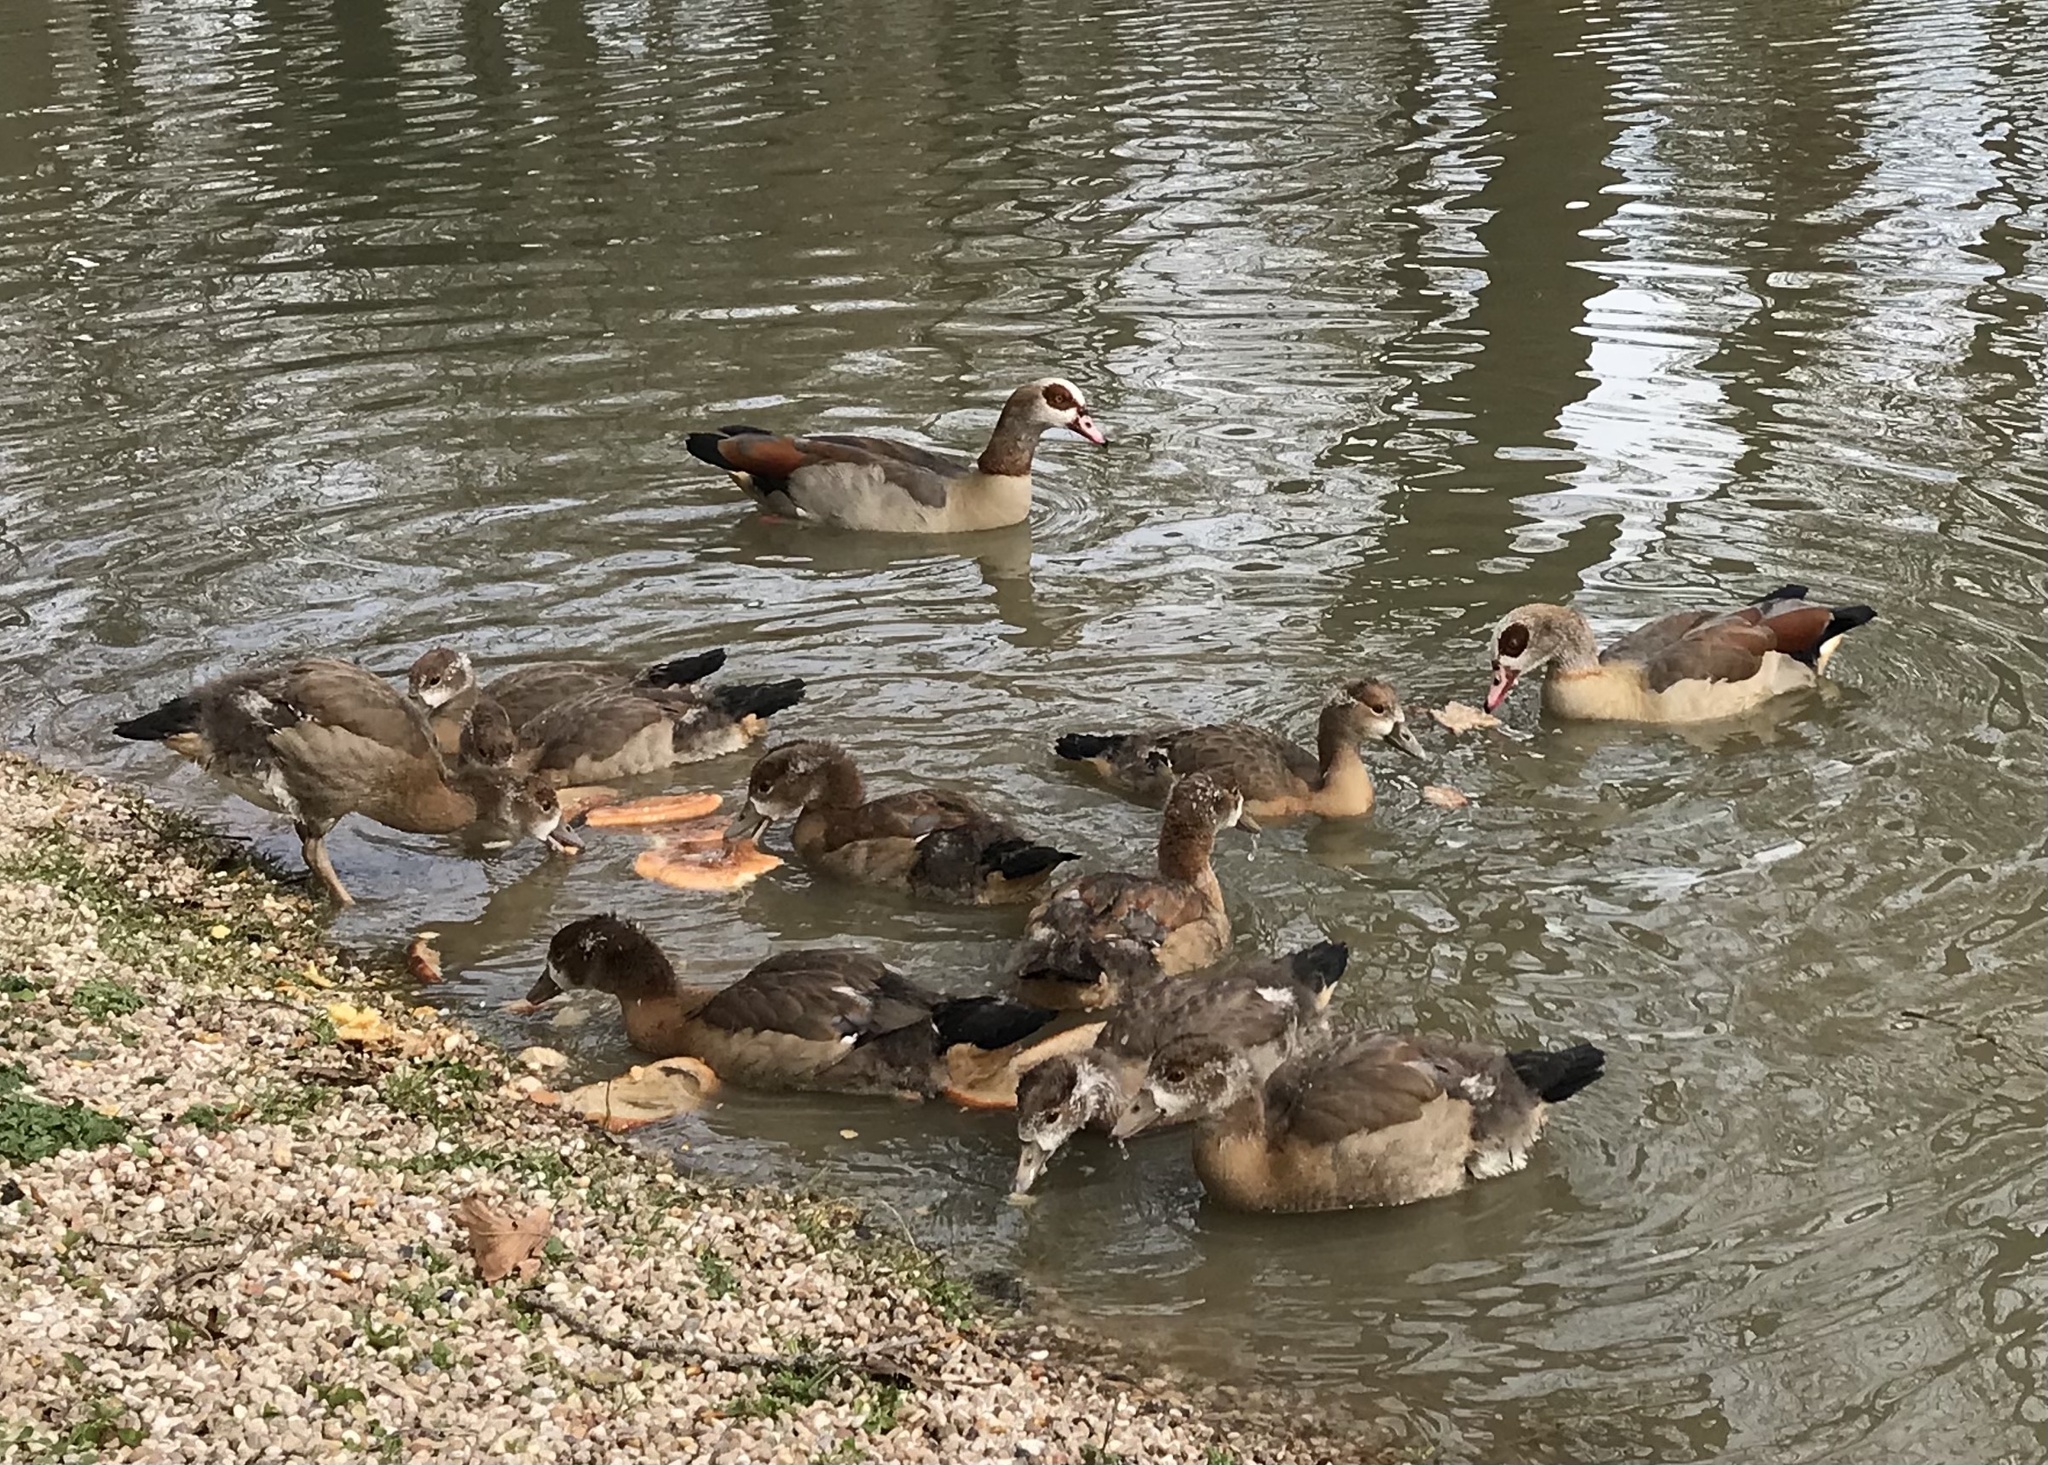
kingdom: Animalia
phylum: Chordata
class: Aves
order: Anseriformes
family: Anatidae
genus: Alopochen
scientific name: Alopochen aegyptiaca
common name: Egyptian goose
